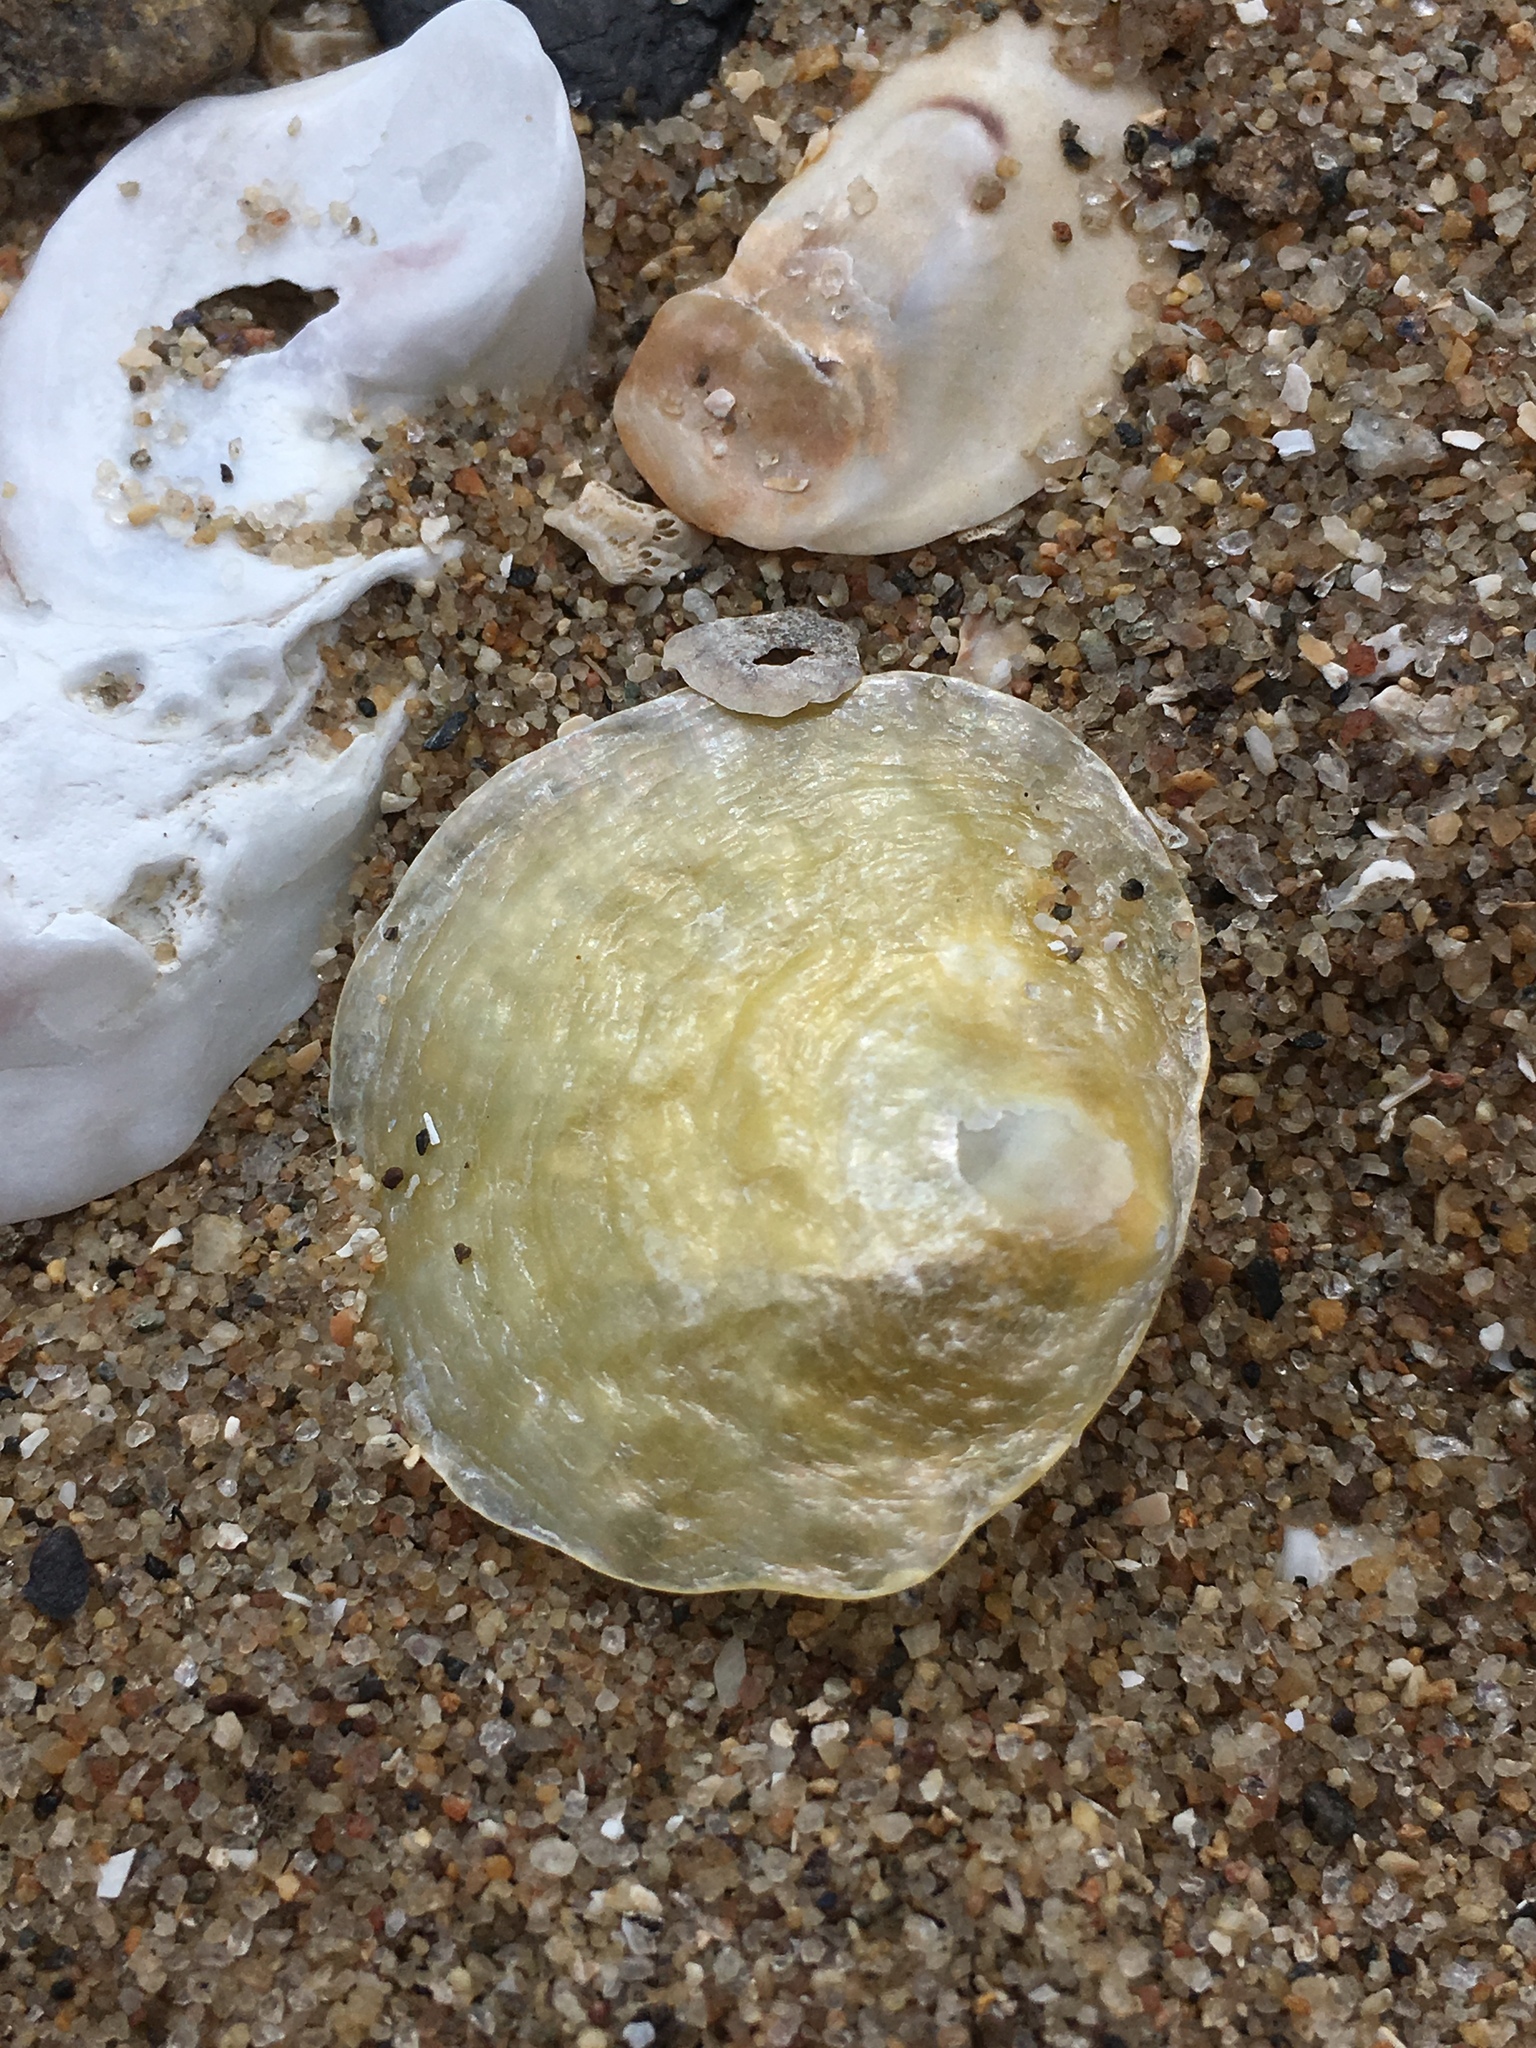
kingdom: Animalia
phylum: Mollusca
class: Bivalvia
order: Pectinida
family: Anomiidae
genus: Anomia
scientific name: Anomia simplex
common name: Common jingle shell
